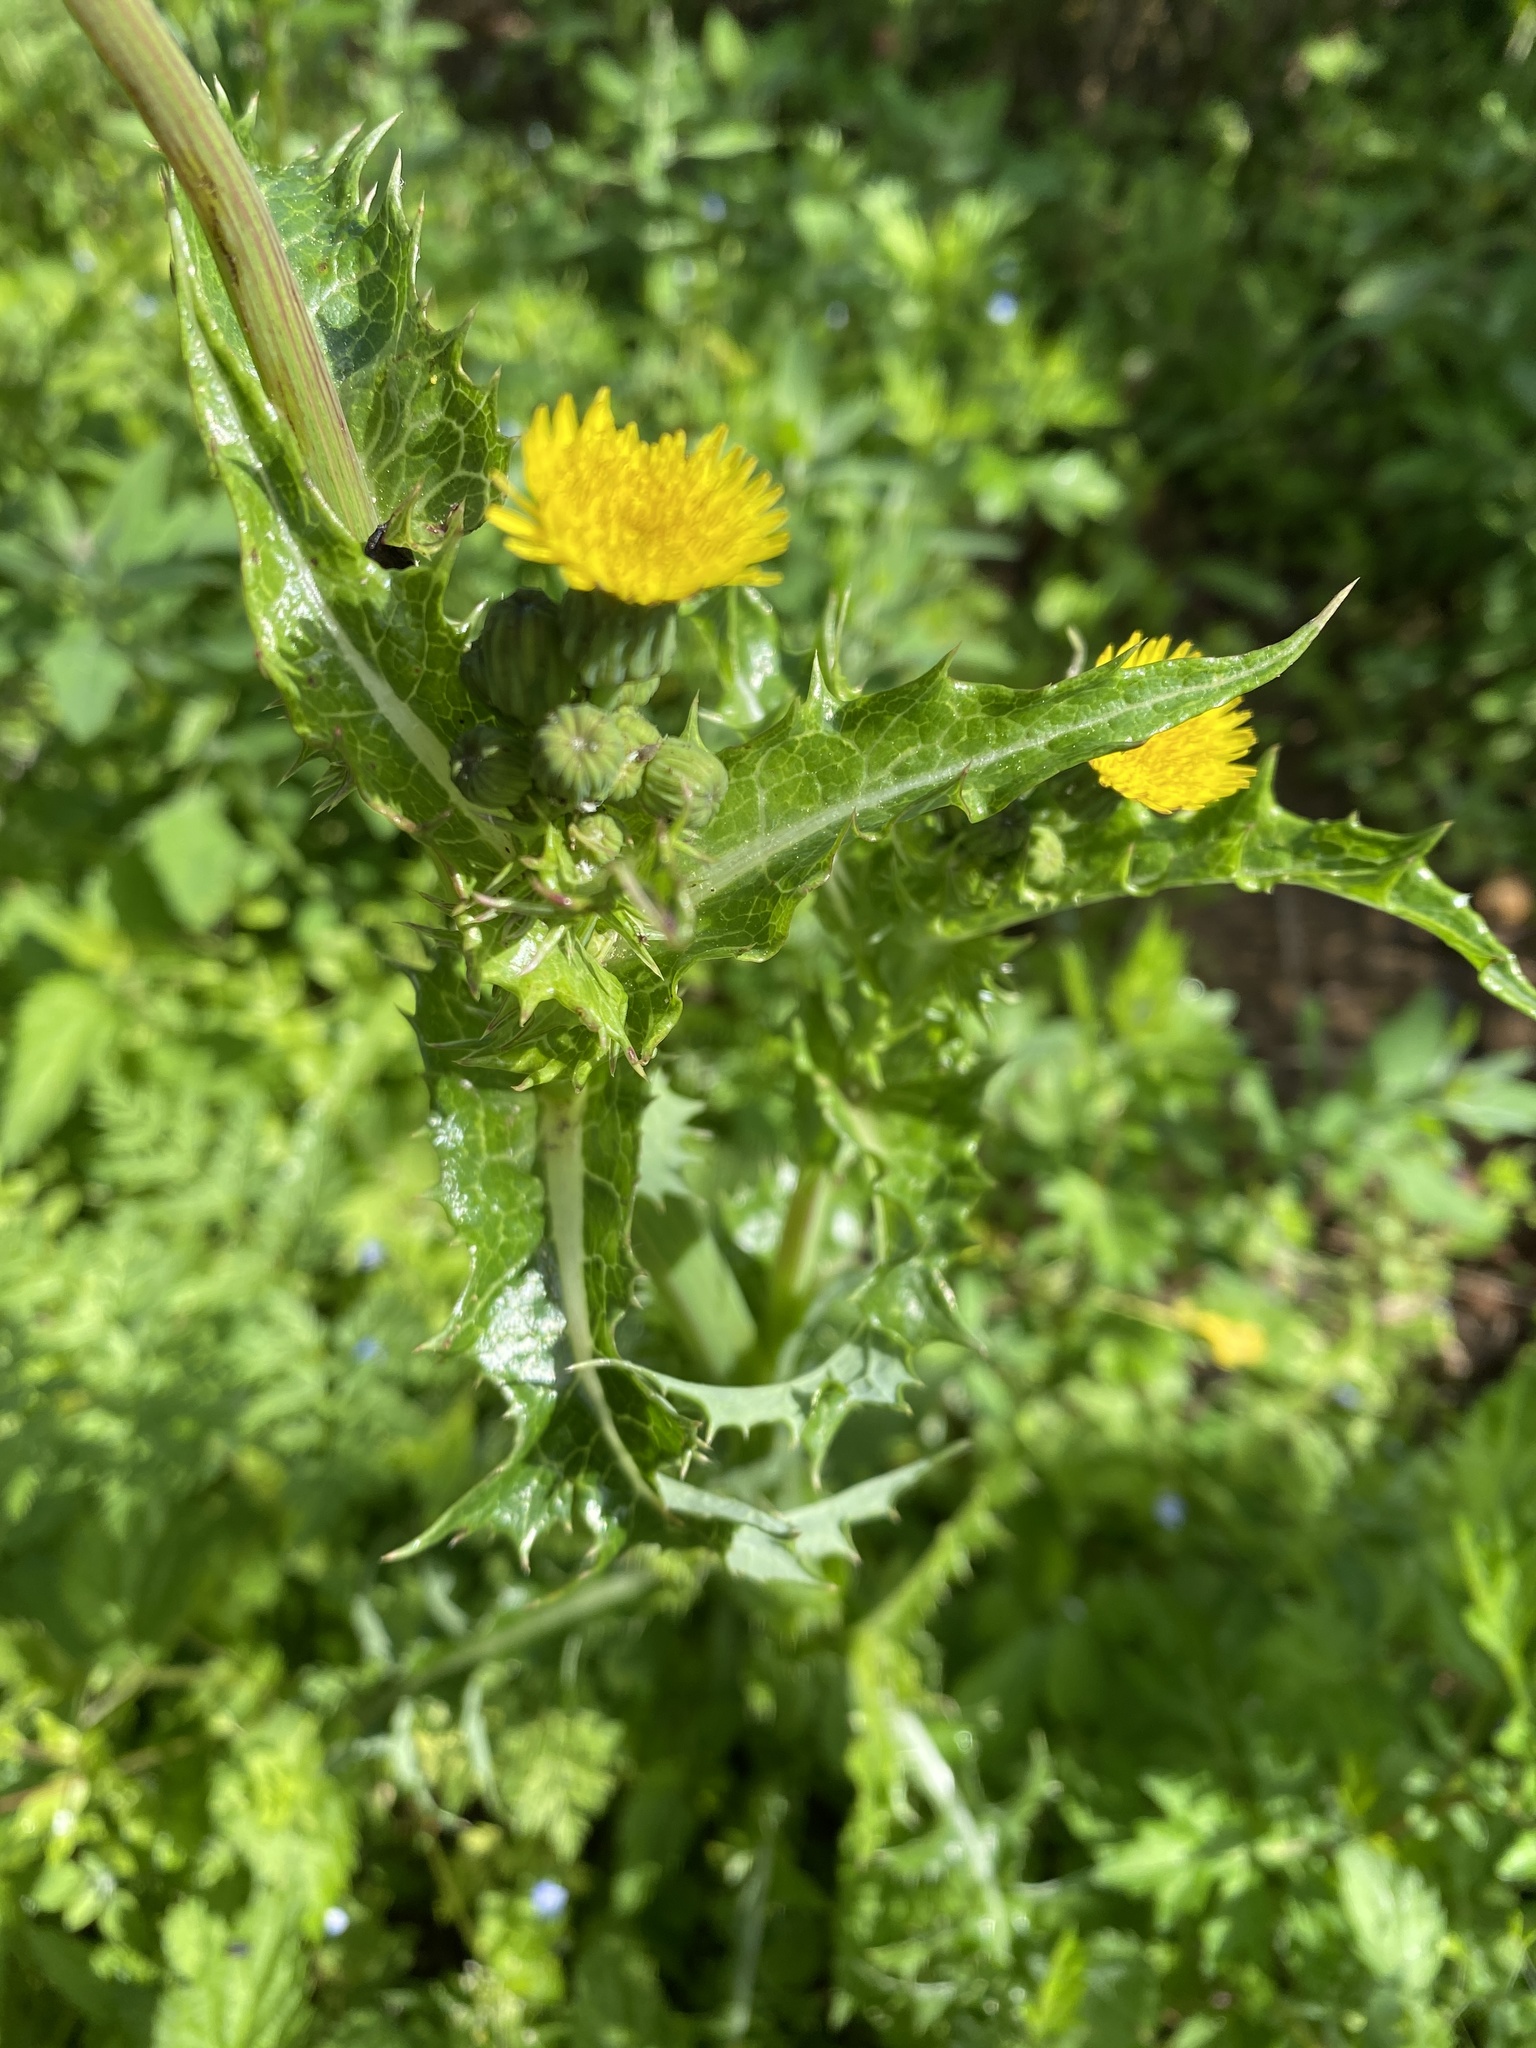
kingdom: Plantae
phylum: Tracheophyta
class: Magnoliopsida
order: Asterales
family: Asteraceae
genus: Sonchus
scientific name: Sonchus asper
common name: Prickly sow-thistle
